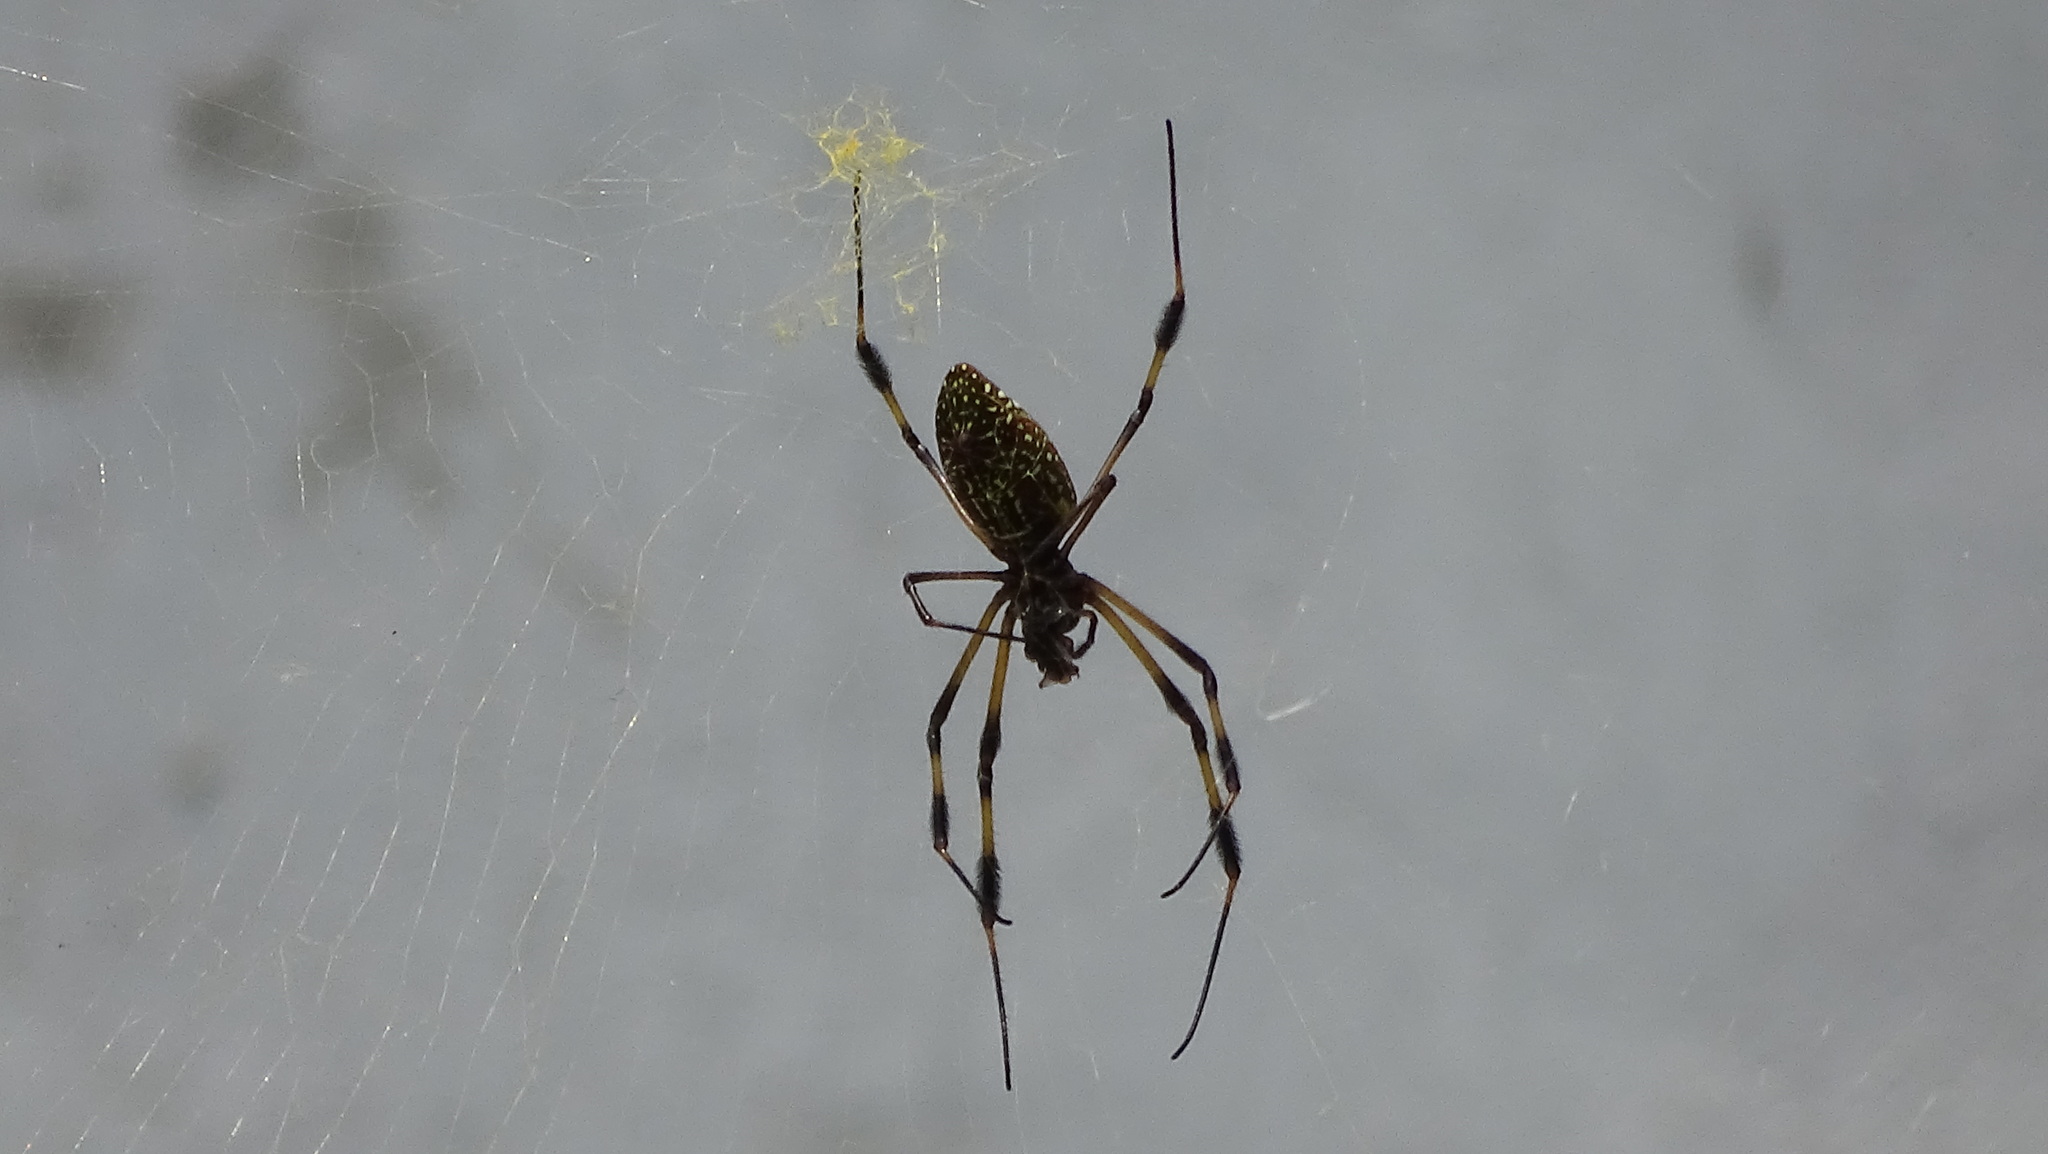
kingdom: Animalia
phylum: Arthropoda
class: Arachnida
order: Araneae
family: Araneidae
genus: Trichonephila
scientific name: Trichonephila clavipes
